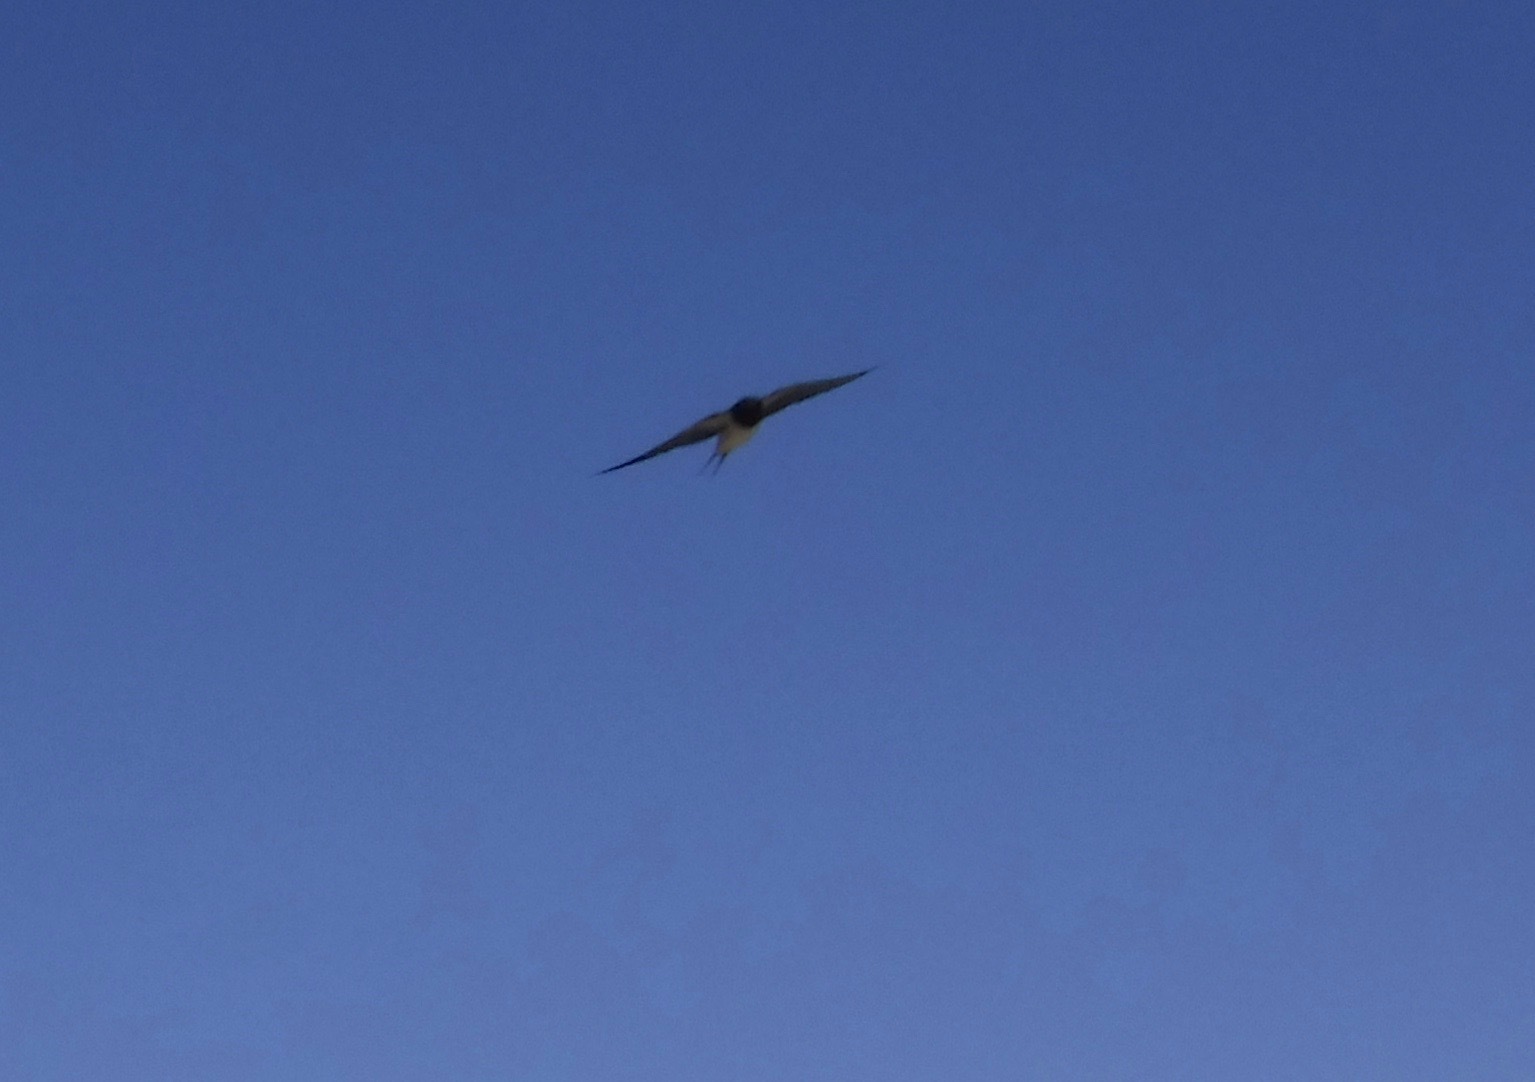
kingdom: Animalia
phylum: Chordata
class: Aves
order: Passeriformes
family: Hirundinidae
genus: Hirundo
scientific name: Hirundo rustica
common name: Barn swallow
